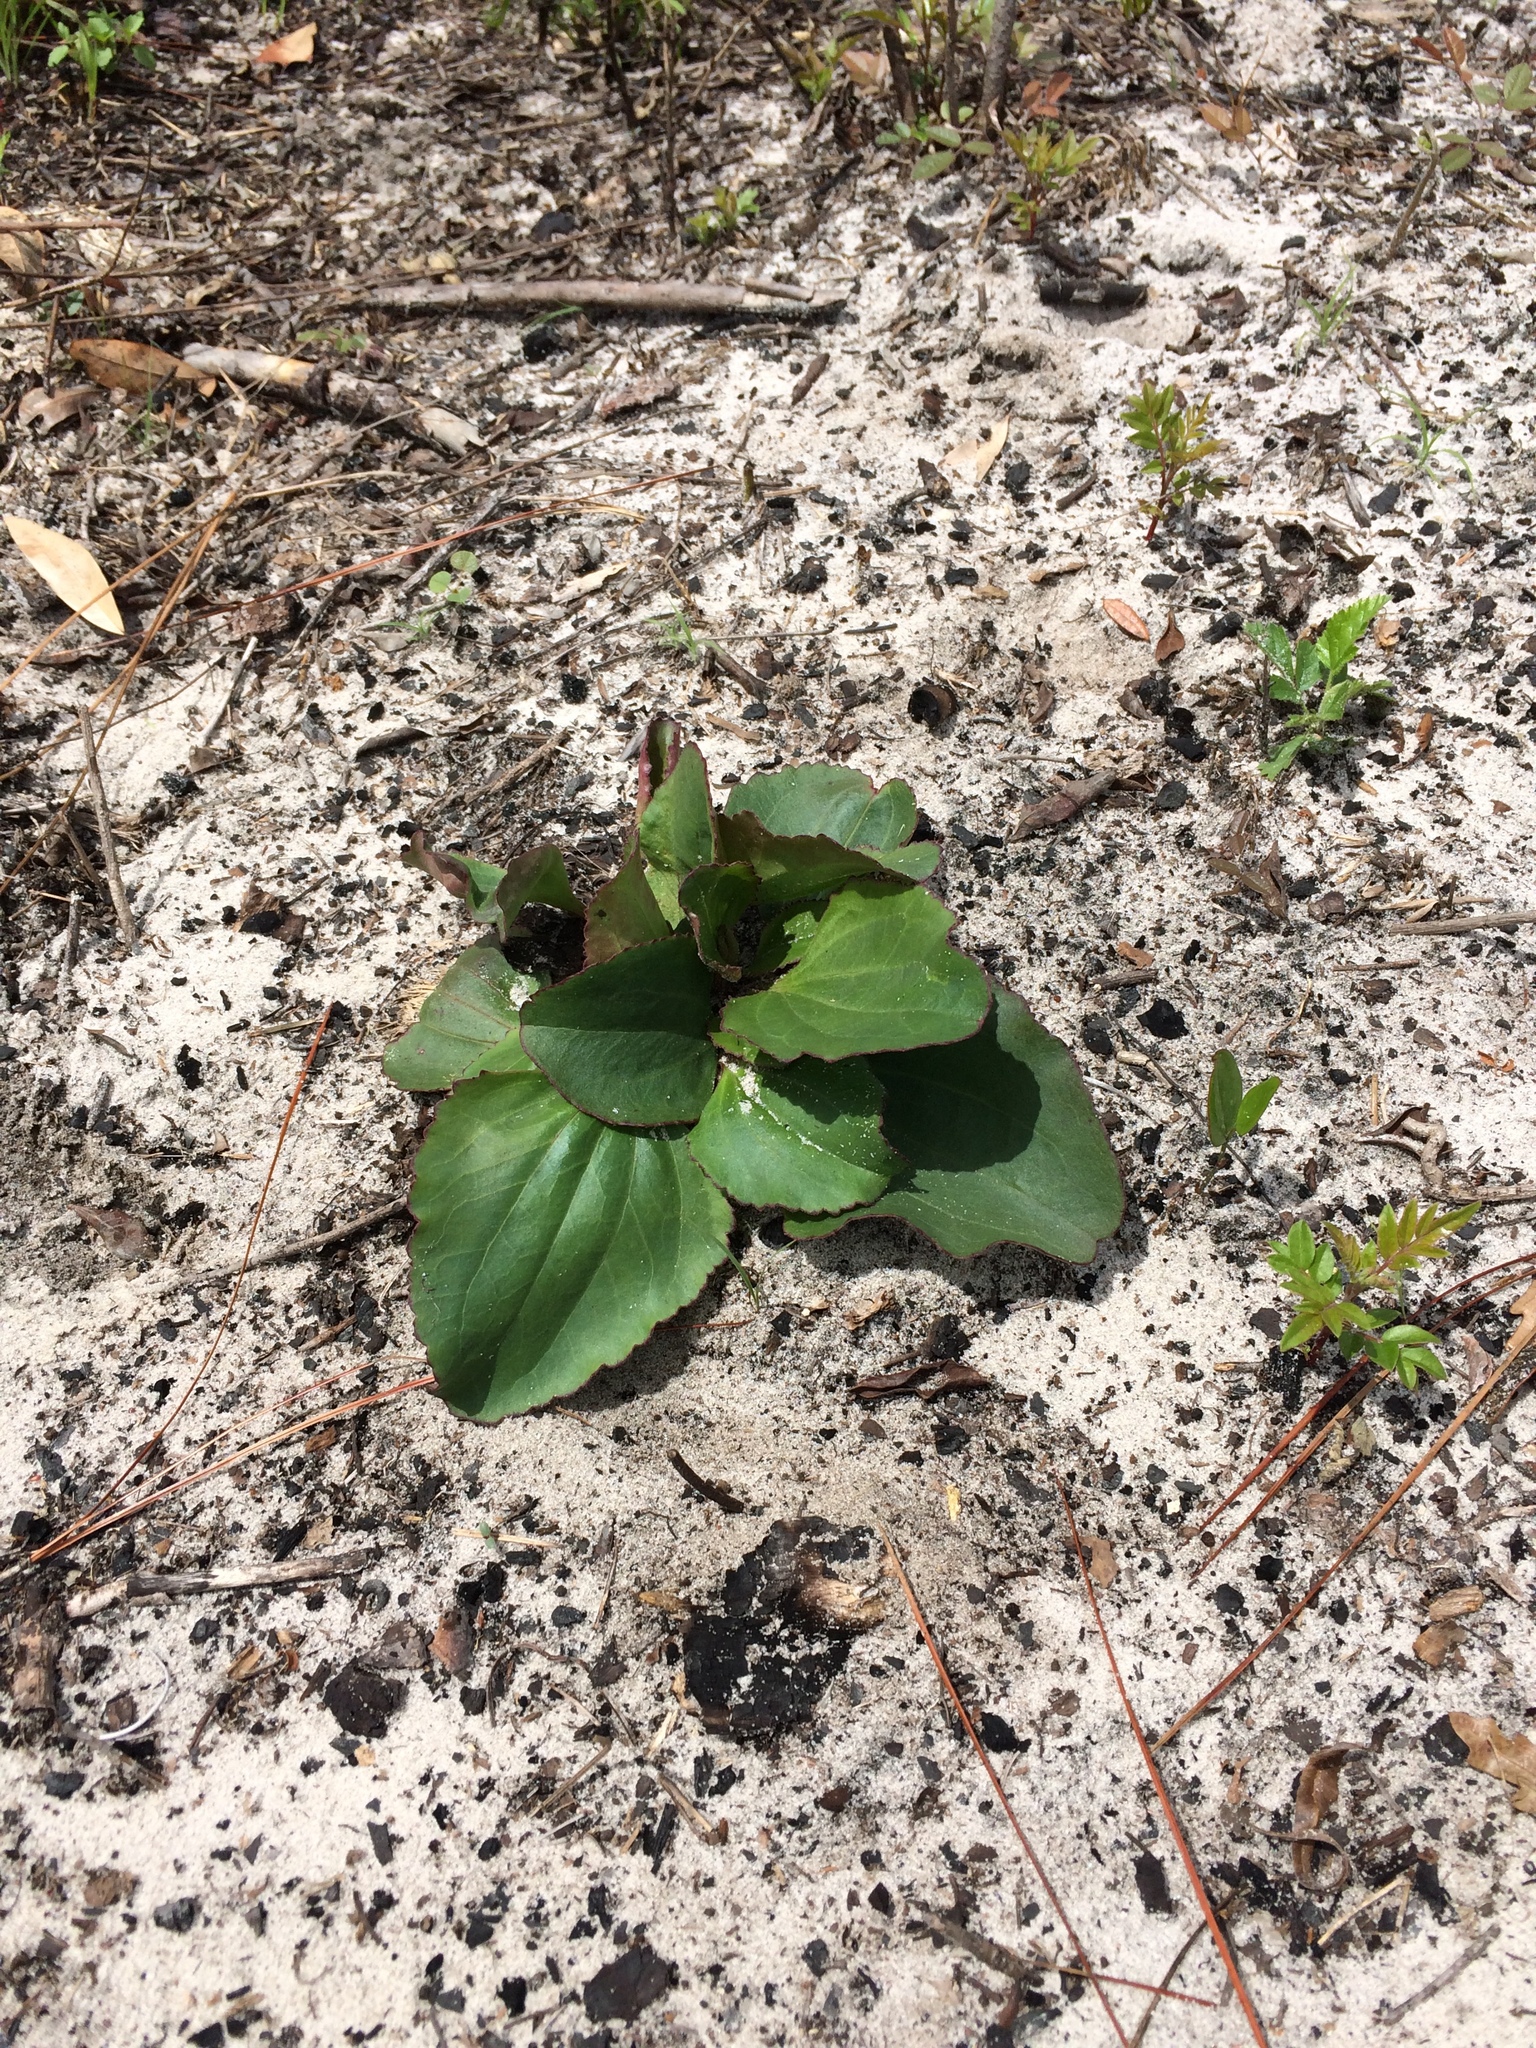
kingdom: Plantae
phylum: Tracheophyta
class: Magnoliopsida
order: Asterales
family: Asteraceae
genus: Arnoglossum
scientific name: Arnoglossum floridanum
